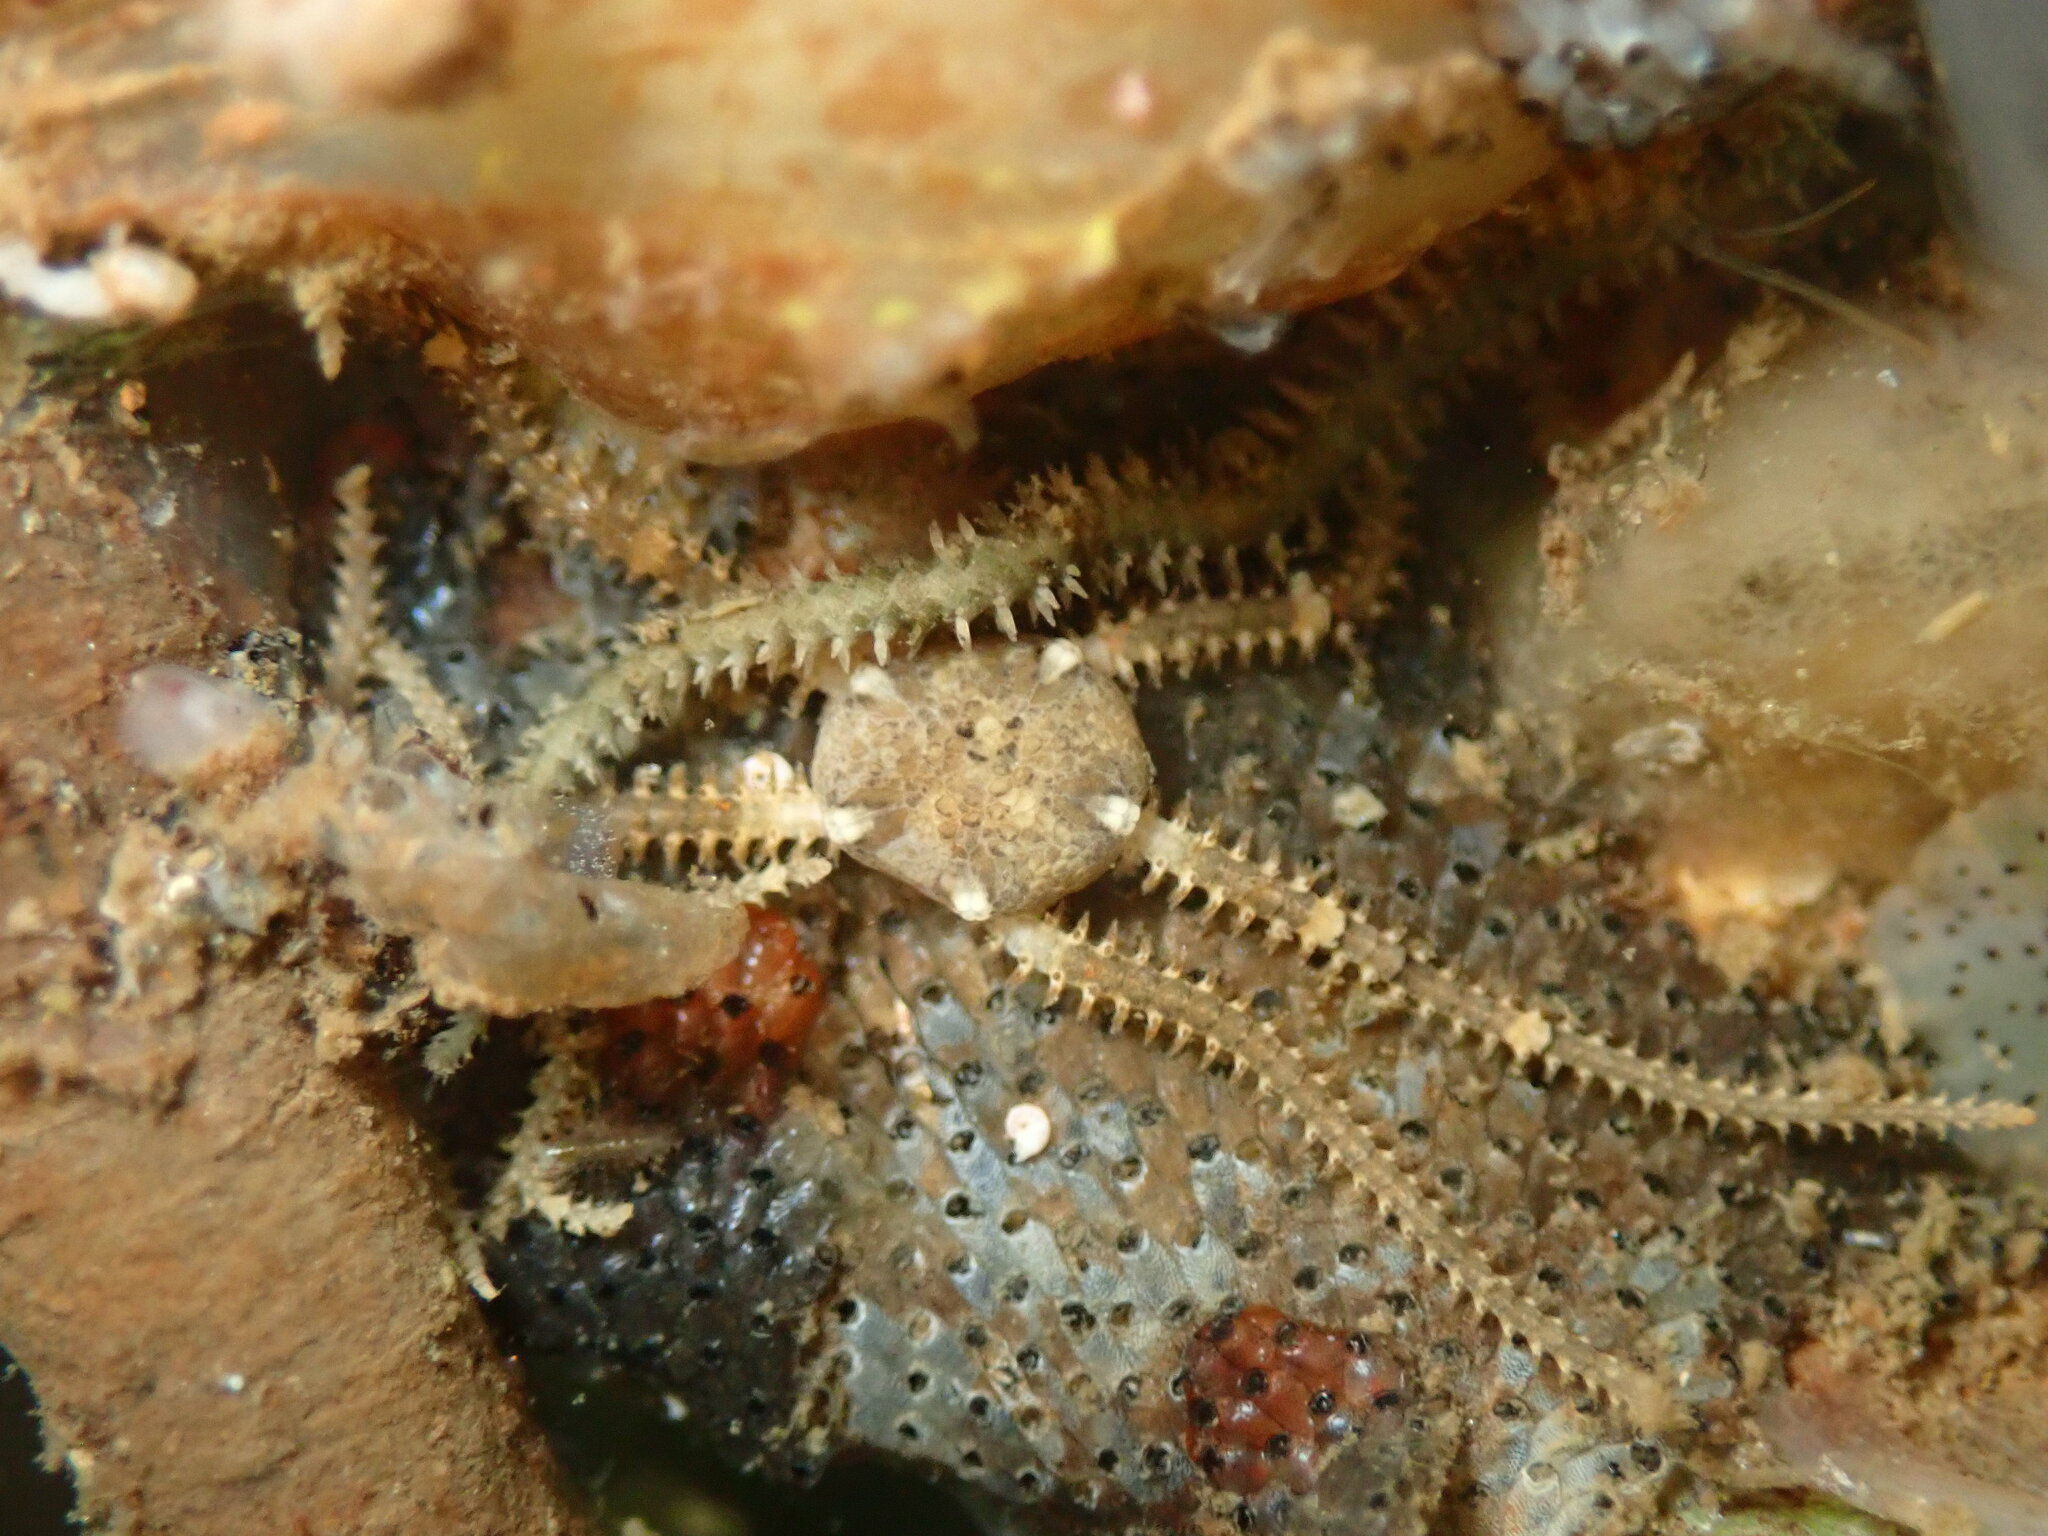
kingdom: Animalia
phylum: Echinodermata
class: Ophiuroidea
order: Amphilepidida
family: Amphiuridae
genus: Amphipholis
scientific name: Amphipholis squamata
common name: Brooding snake star
